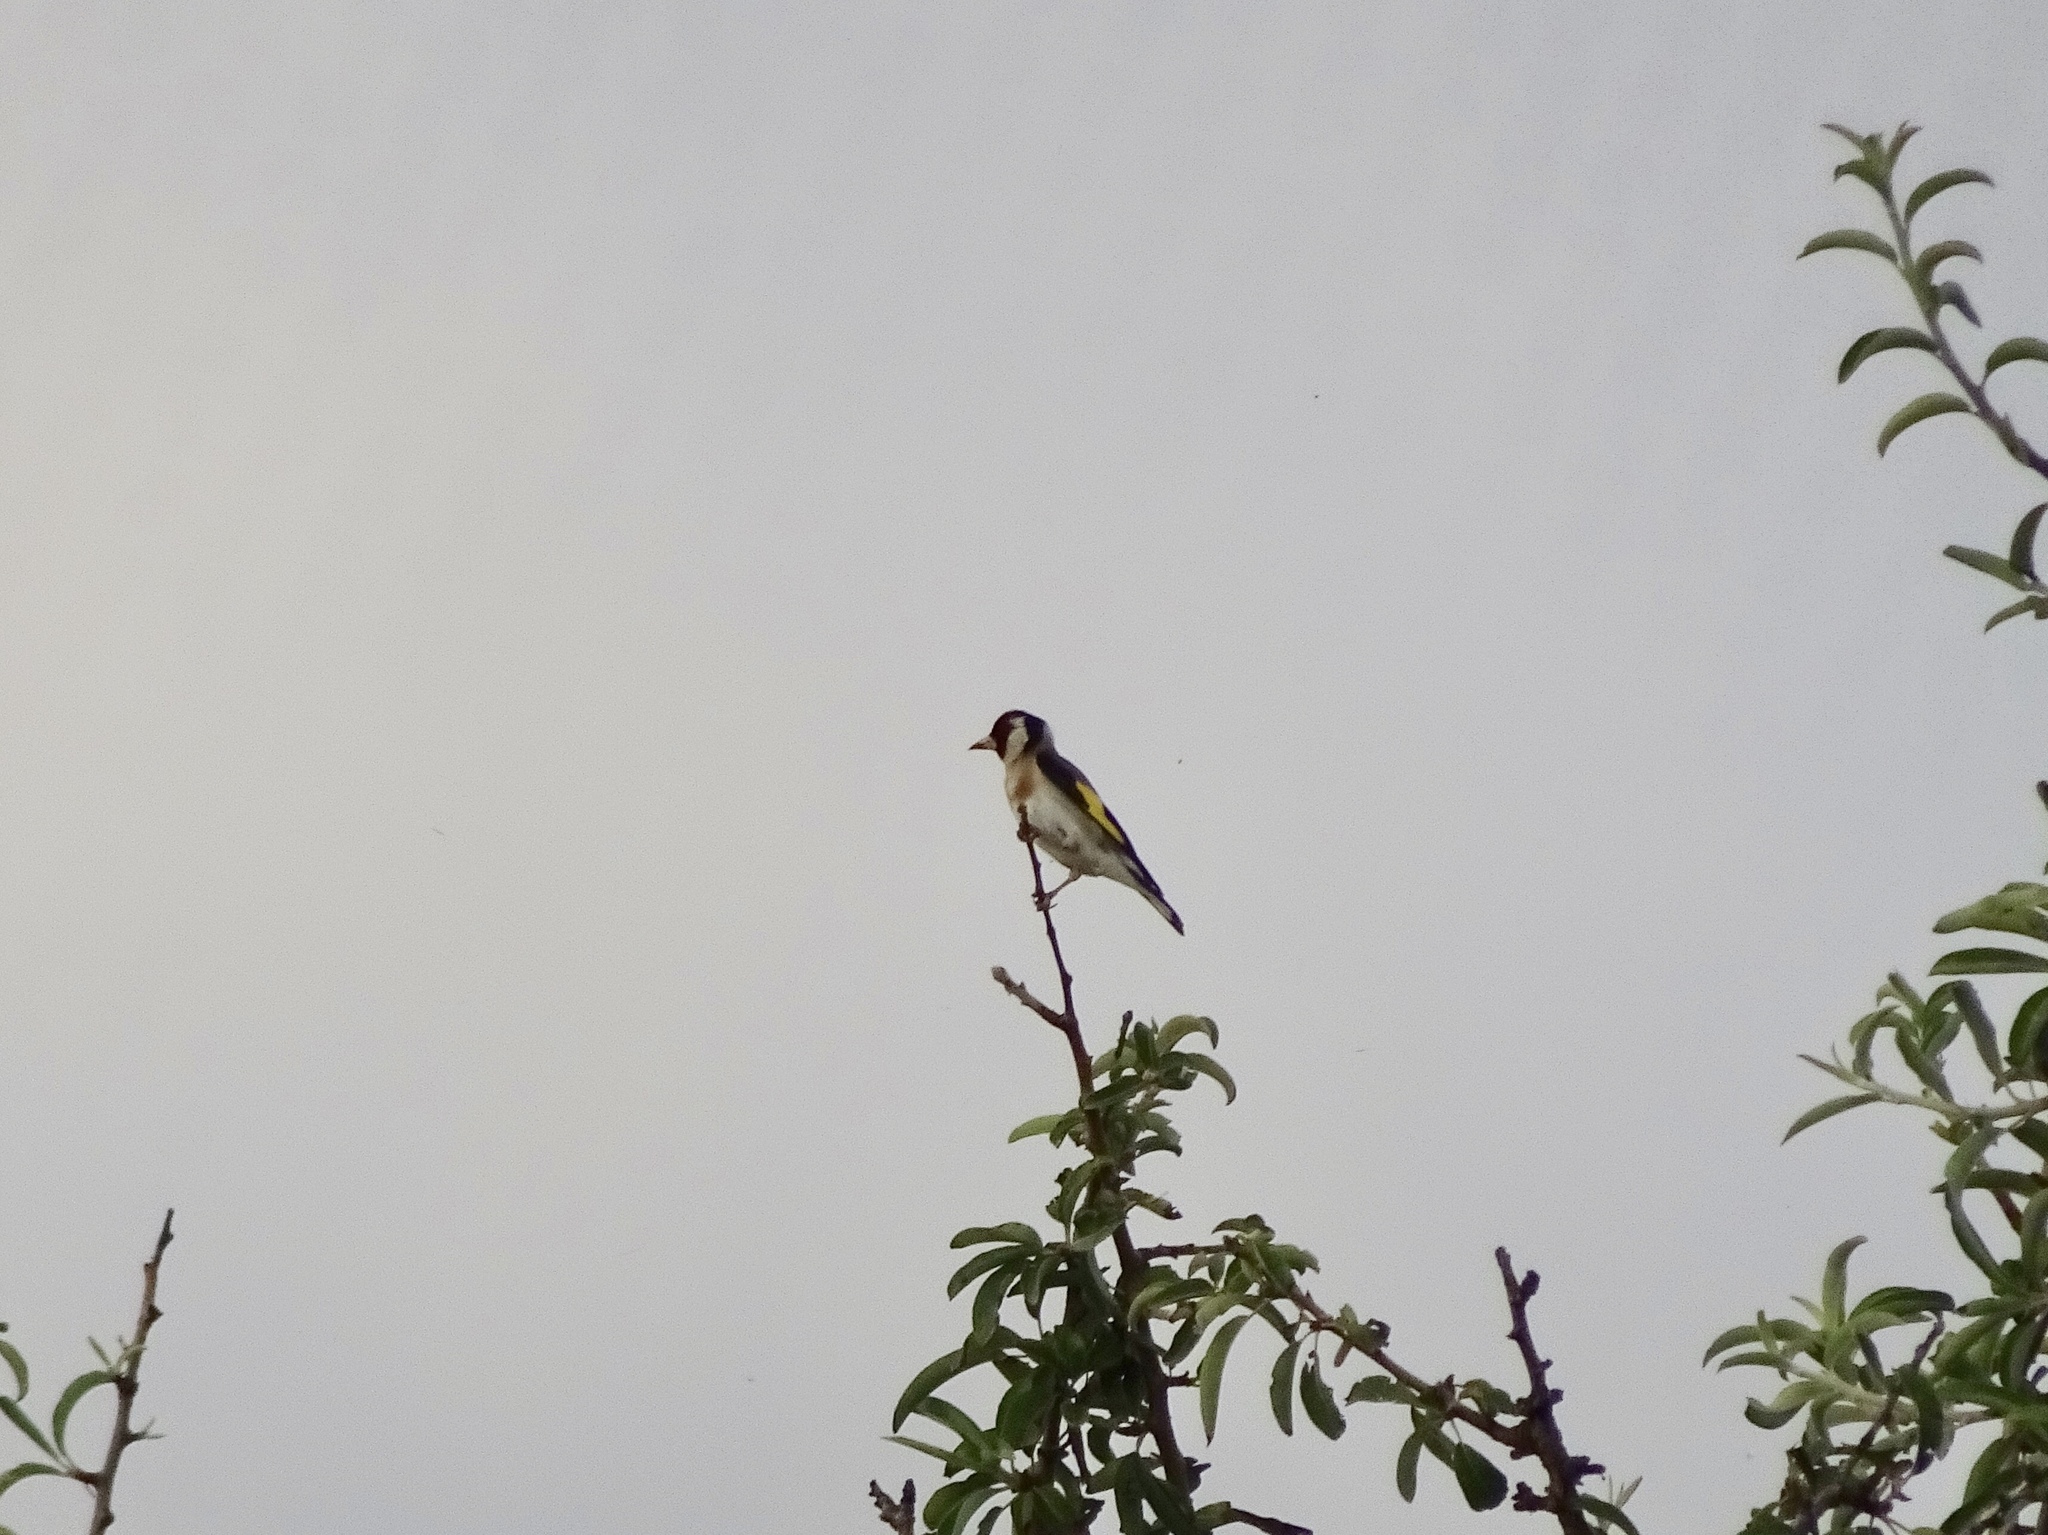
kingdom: Animalia
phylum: Chordata
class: Aves
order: Passeriformes
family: Fringillidae
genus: Carduelis
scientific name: Carduelis carduelis
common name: European goldfinch
